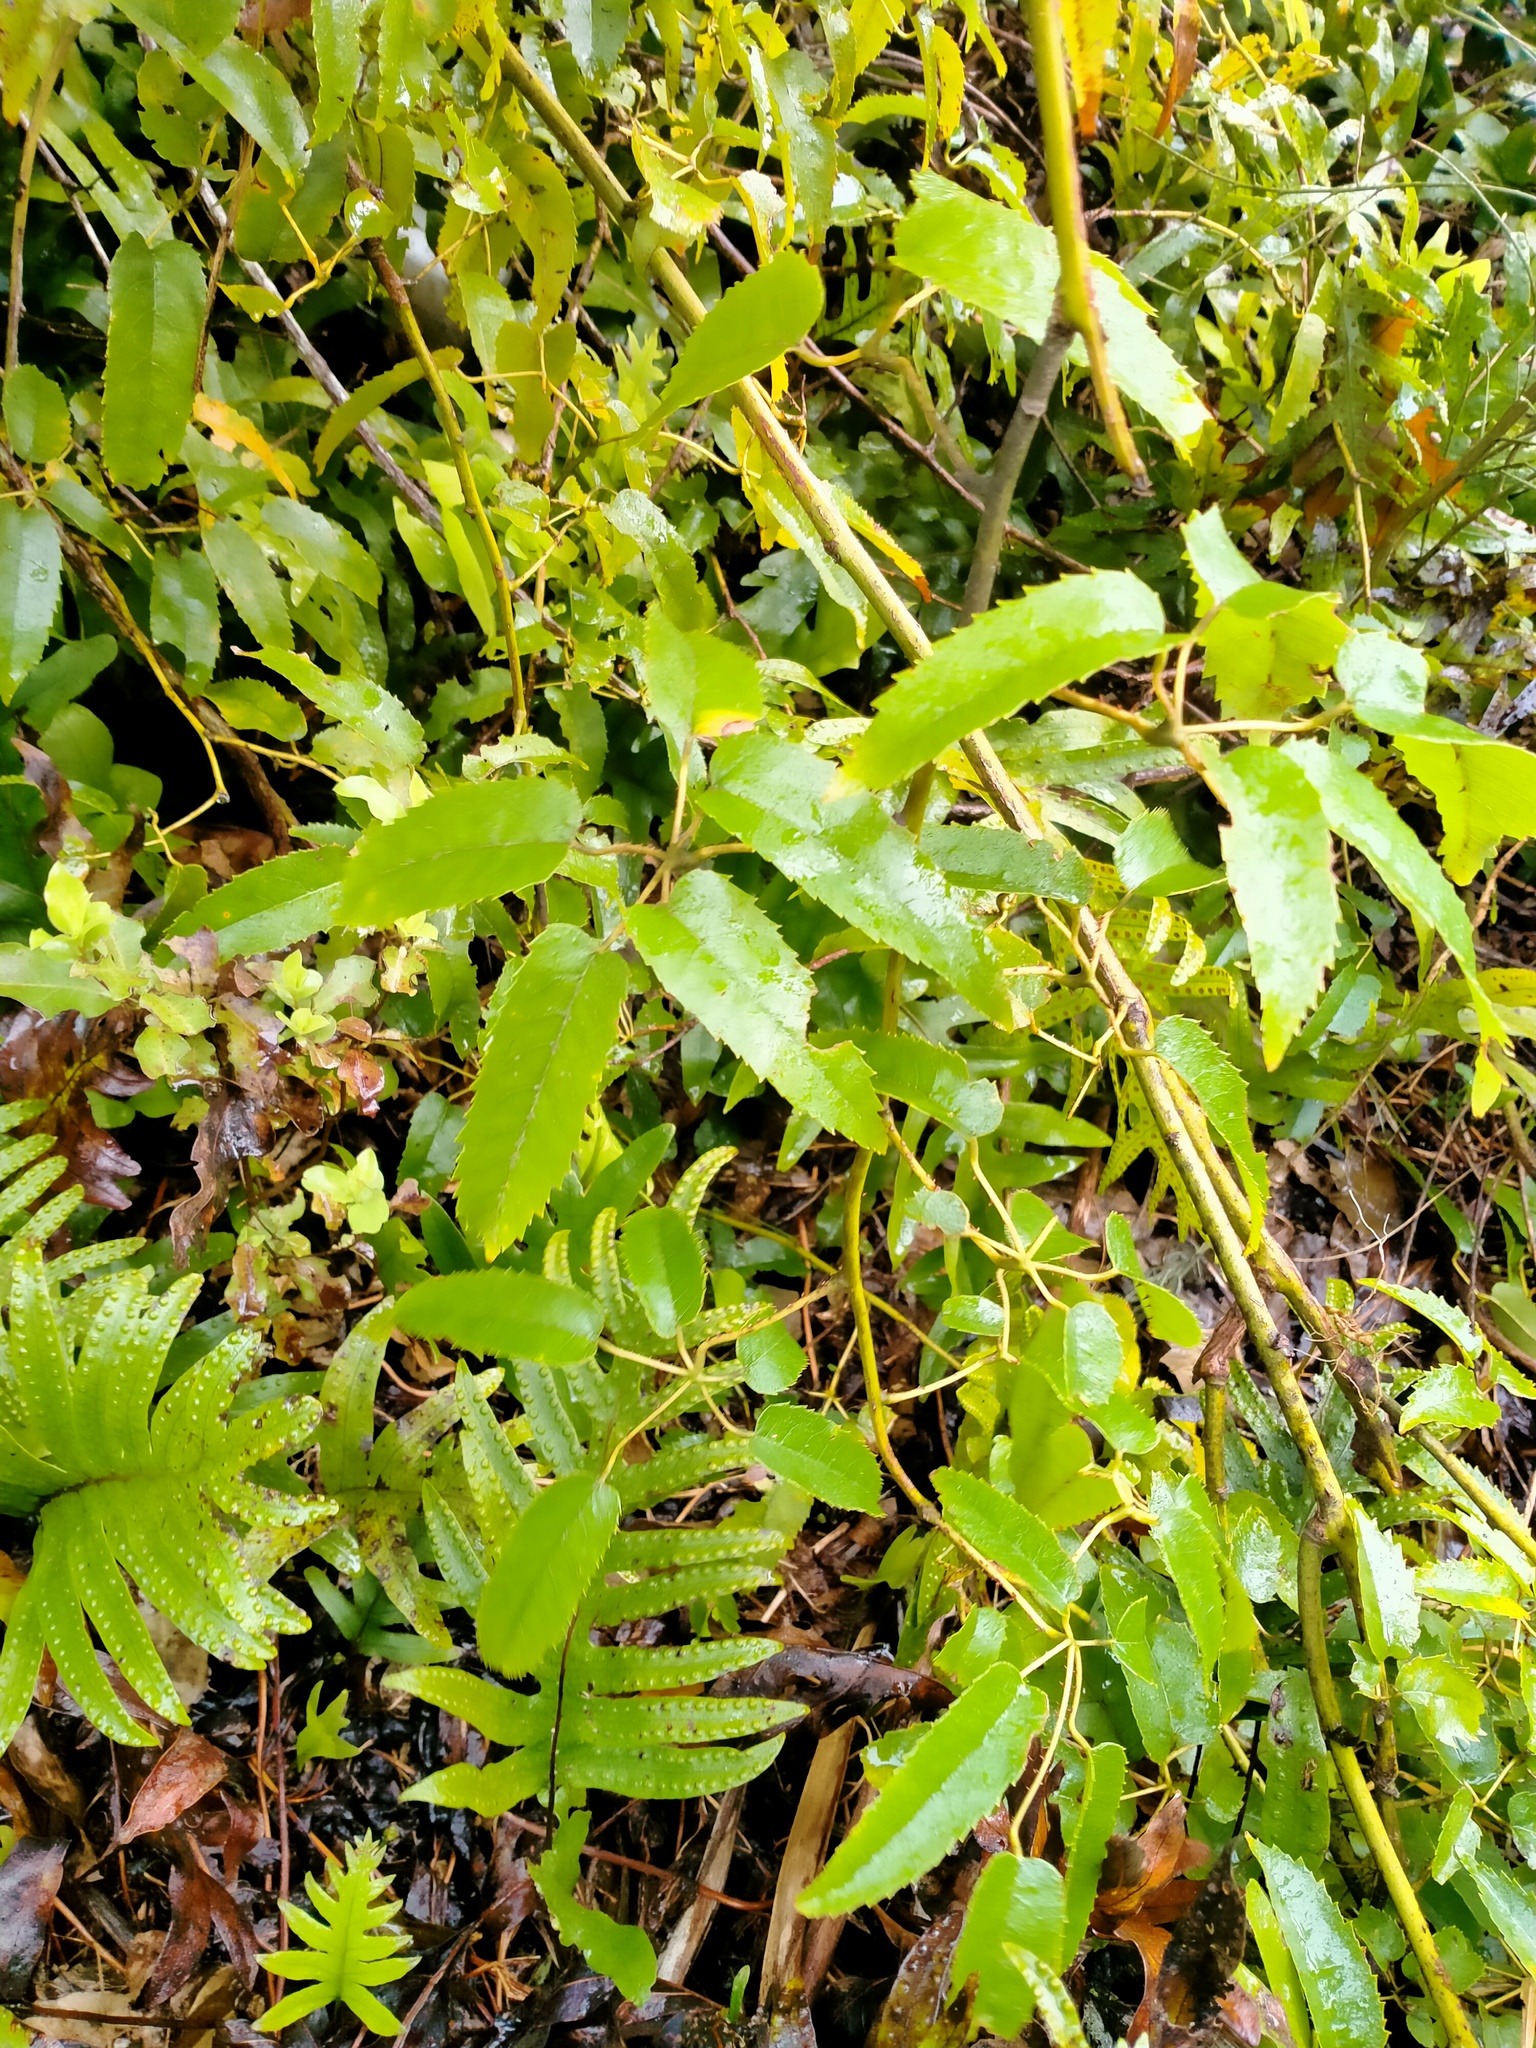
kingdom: Plantae
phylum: Tracheophyta
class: Magnoliopsida
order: Rosales
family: Rosaceae
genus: Rubus
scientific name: Rubus cissoides
